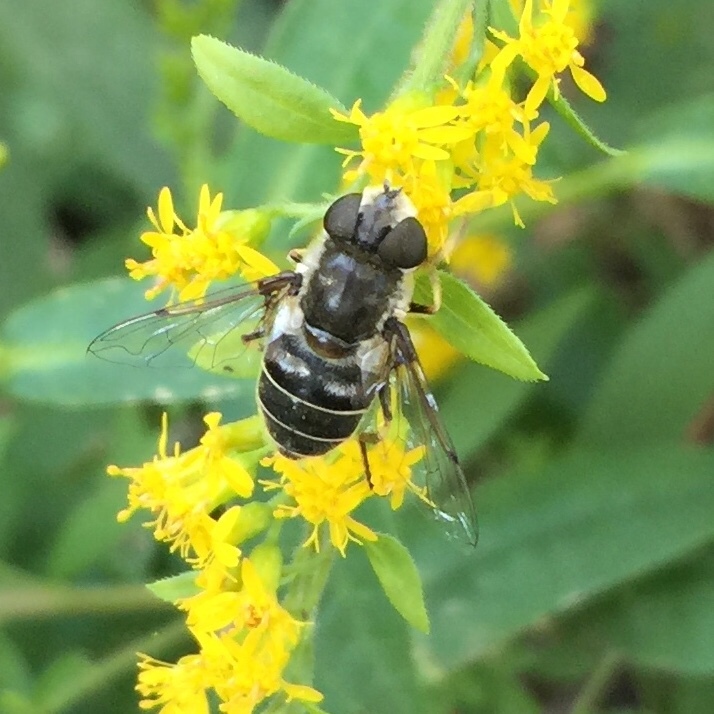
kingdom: Animalia
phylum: Arthropoda
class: Insecta
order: Diptera
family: Syrphidae
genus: Eristalis
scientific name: Eristalis dimidiata
